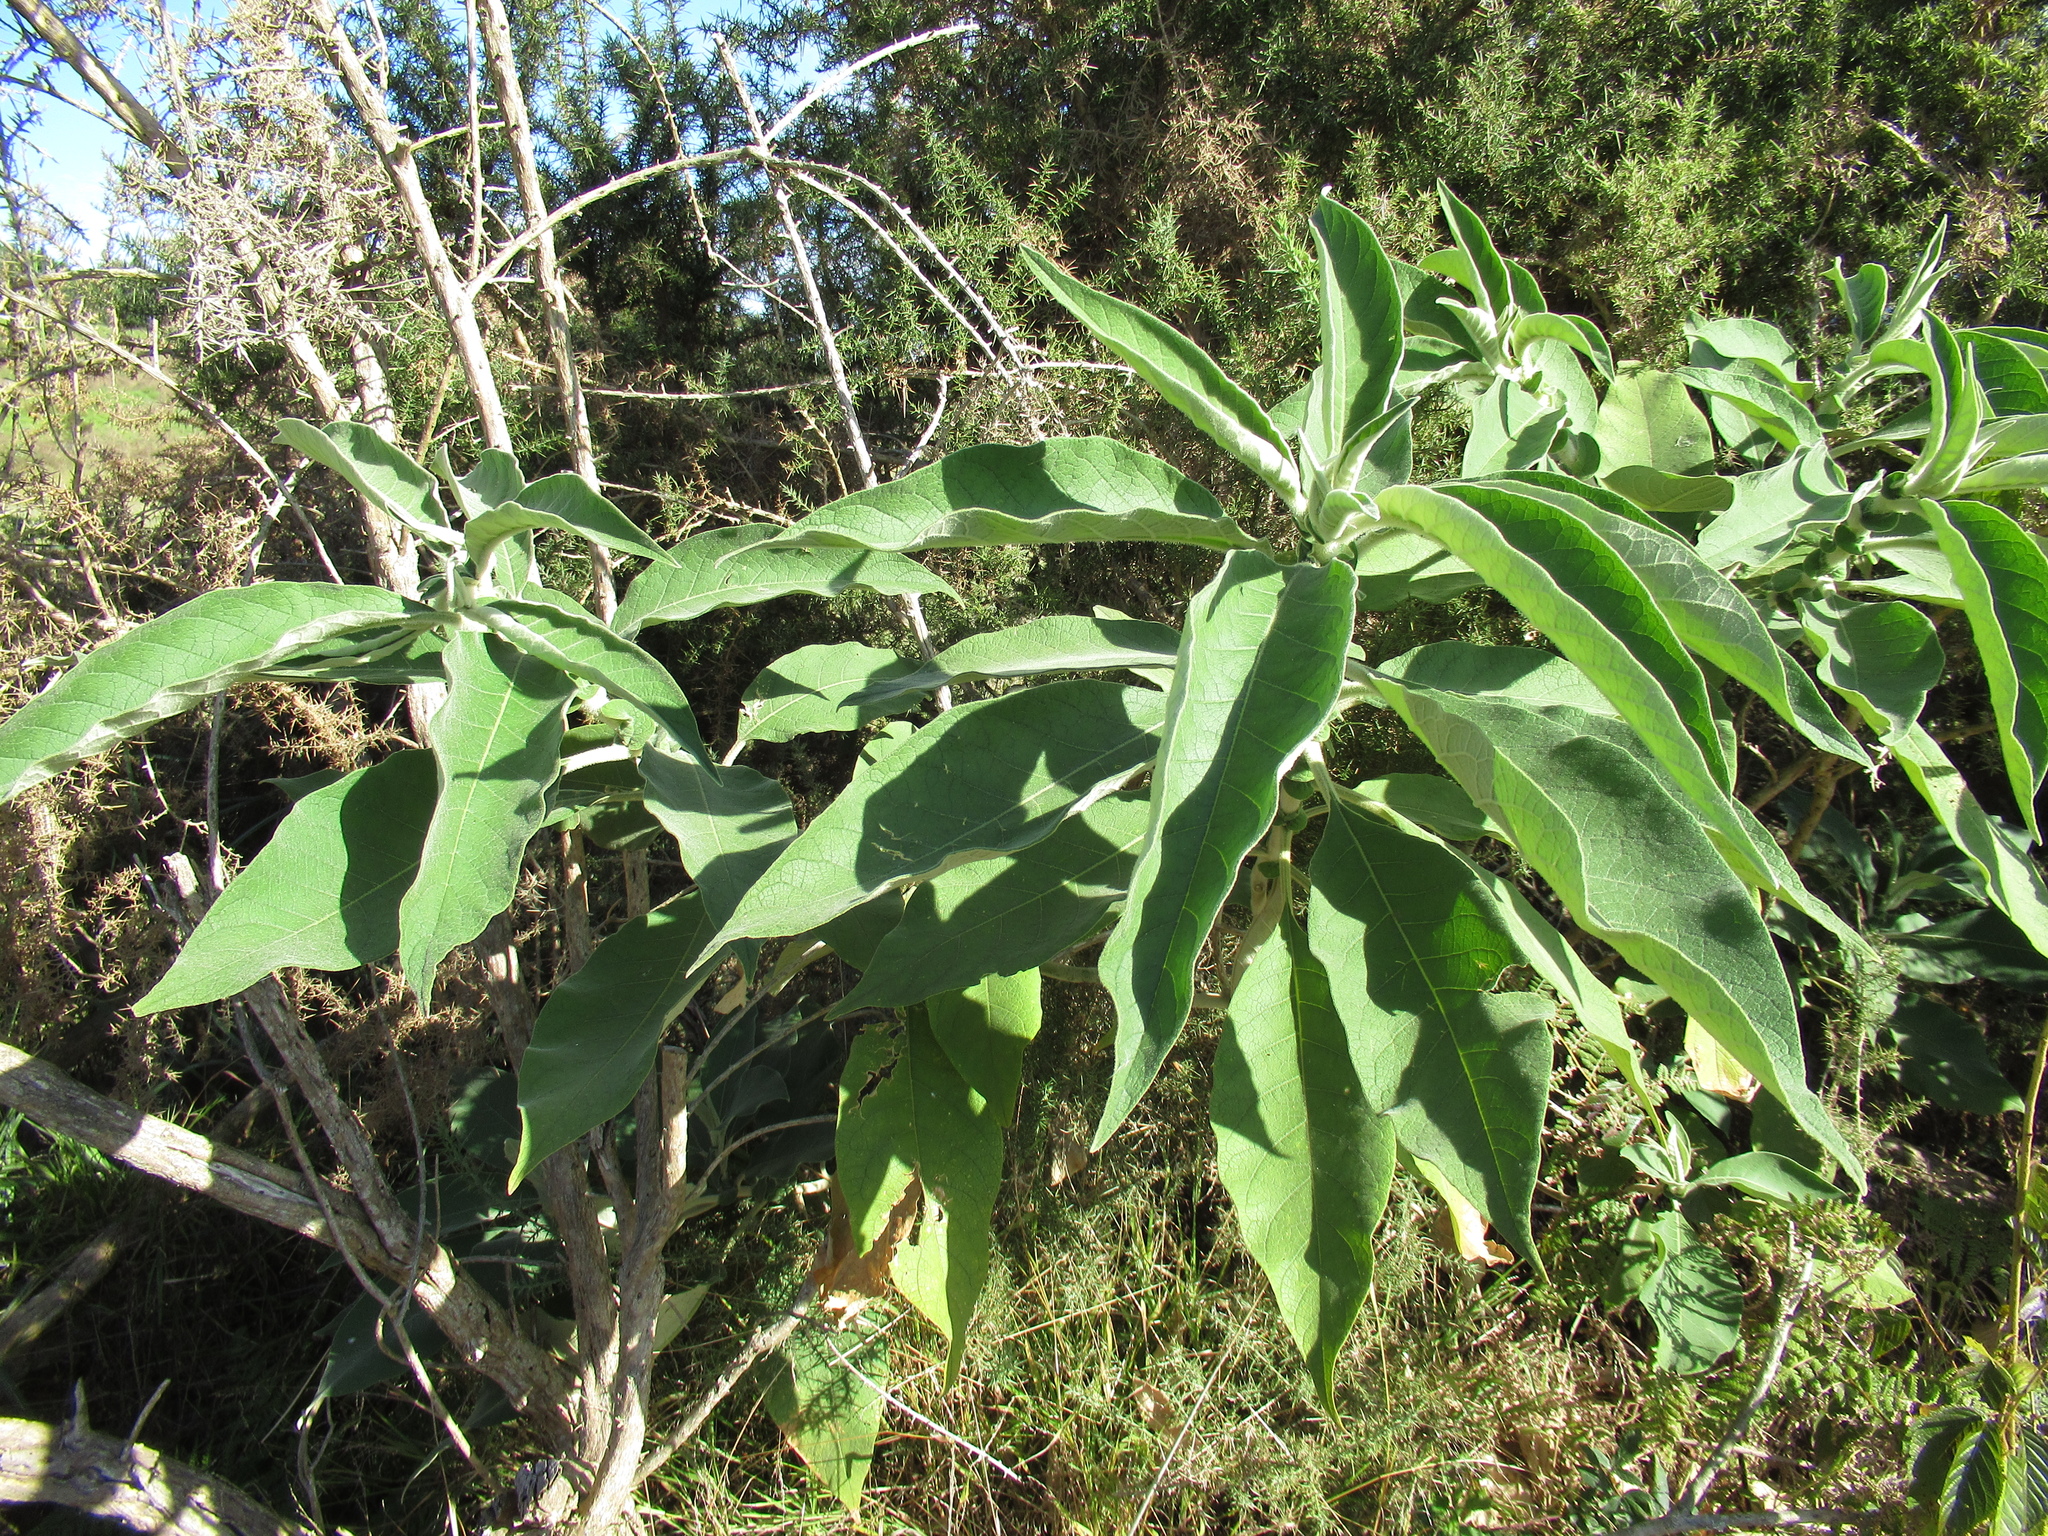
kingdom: Animalia
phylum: Arthropoda
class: Insecta
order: Hemiptera
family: Tingidae
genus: Gargaphia
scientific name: Gargaphia decoris
